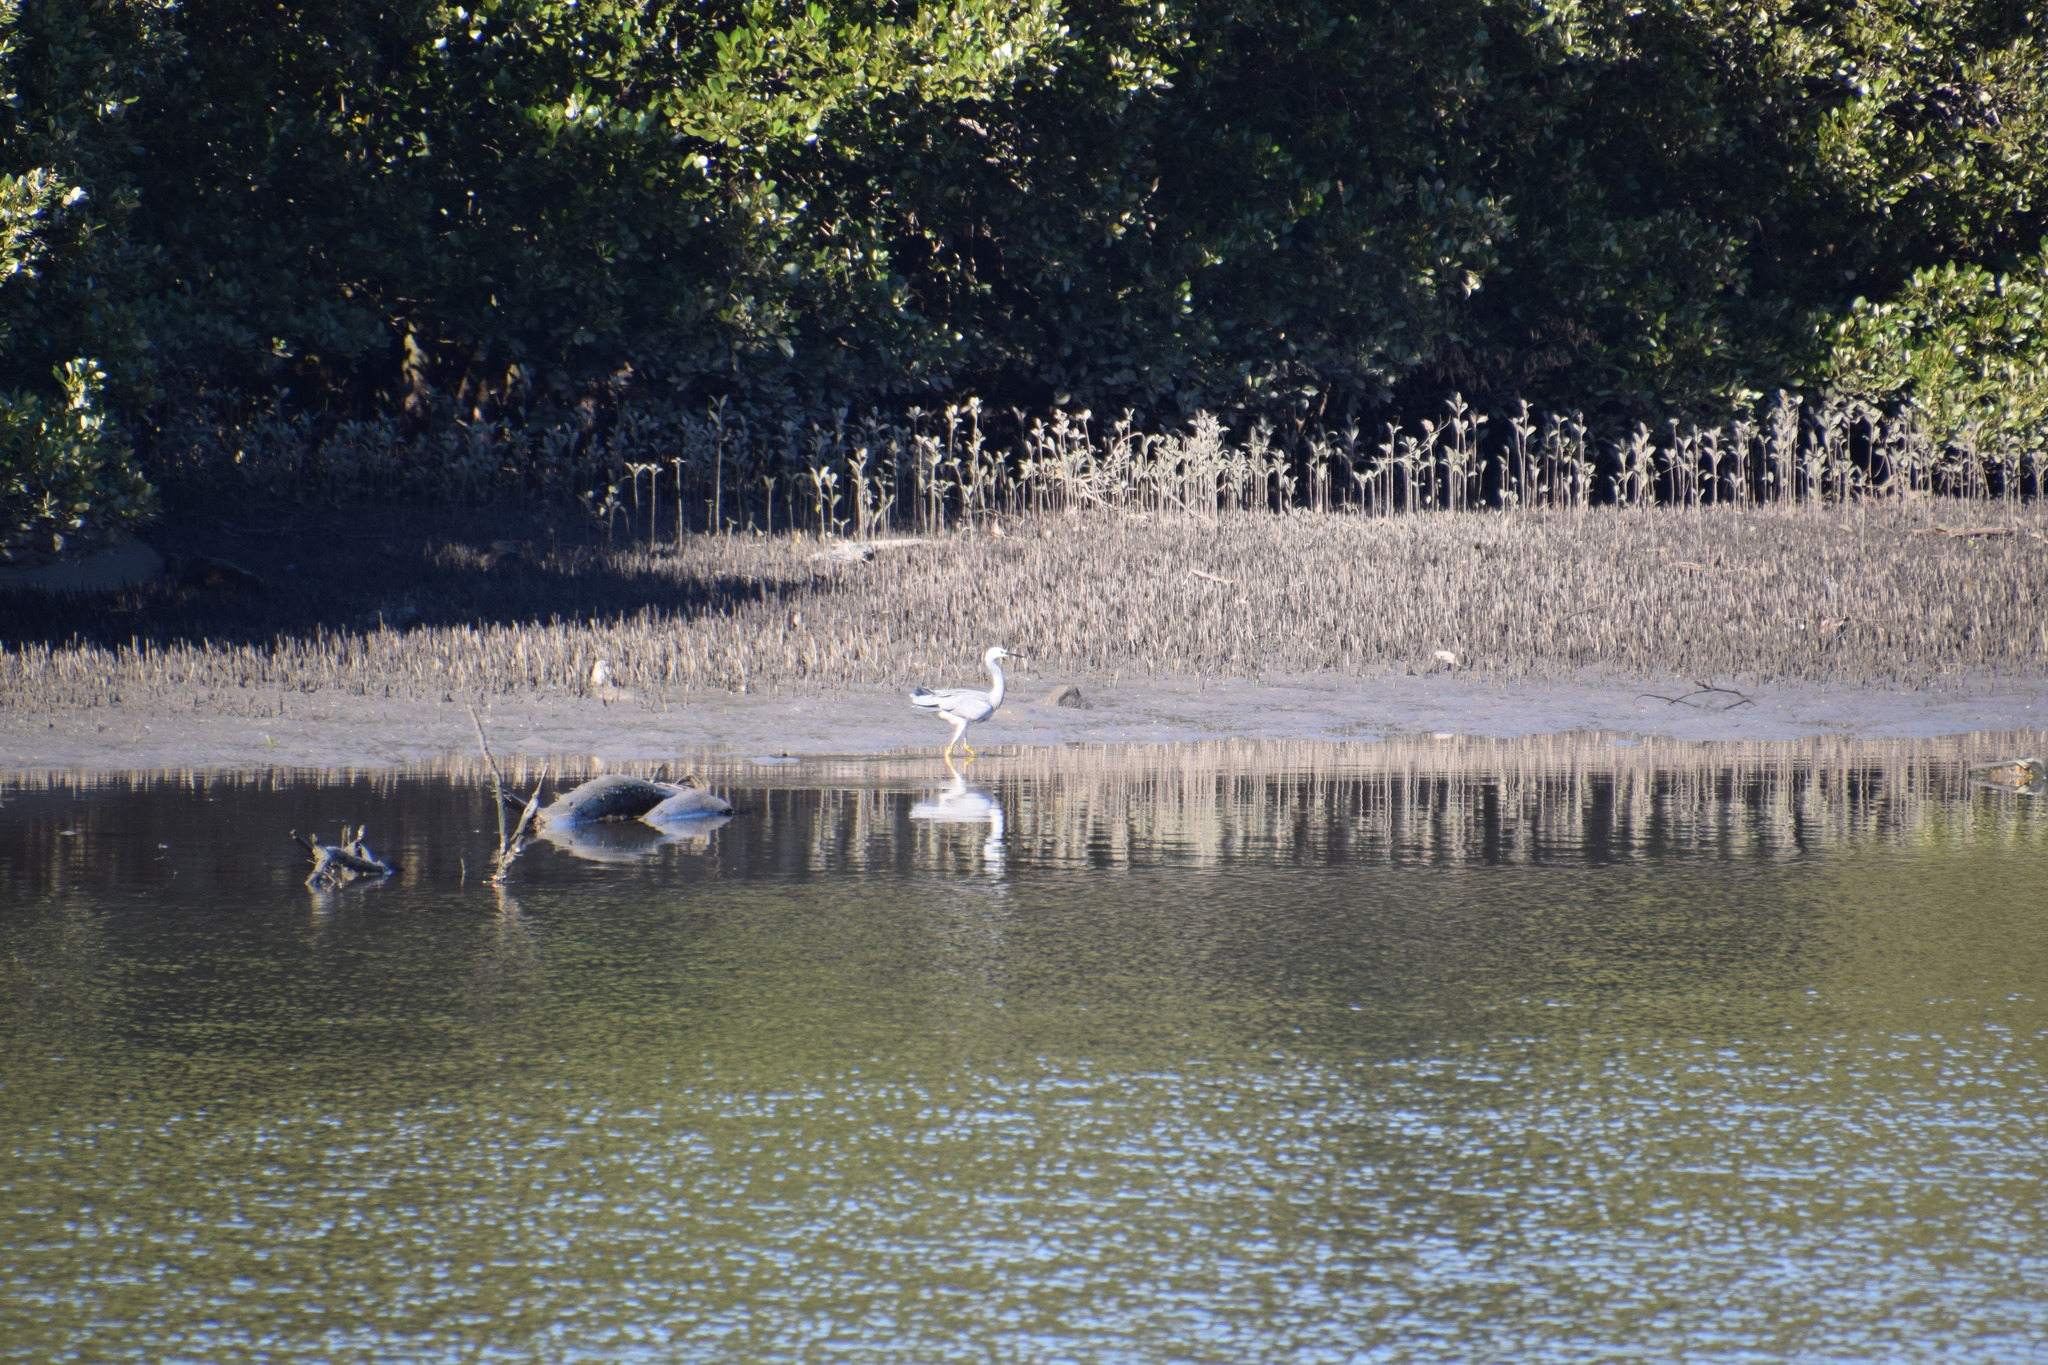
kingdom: Animalia
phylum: Chordata
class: Aves
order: Pelecaniformes
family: Ardeidae
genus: Egretta
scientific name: Egretta novaehollandiae
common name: White-faced heron
